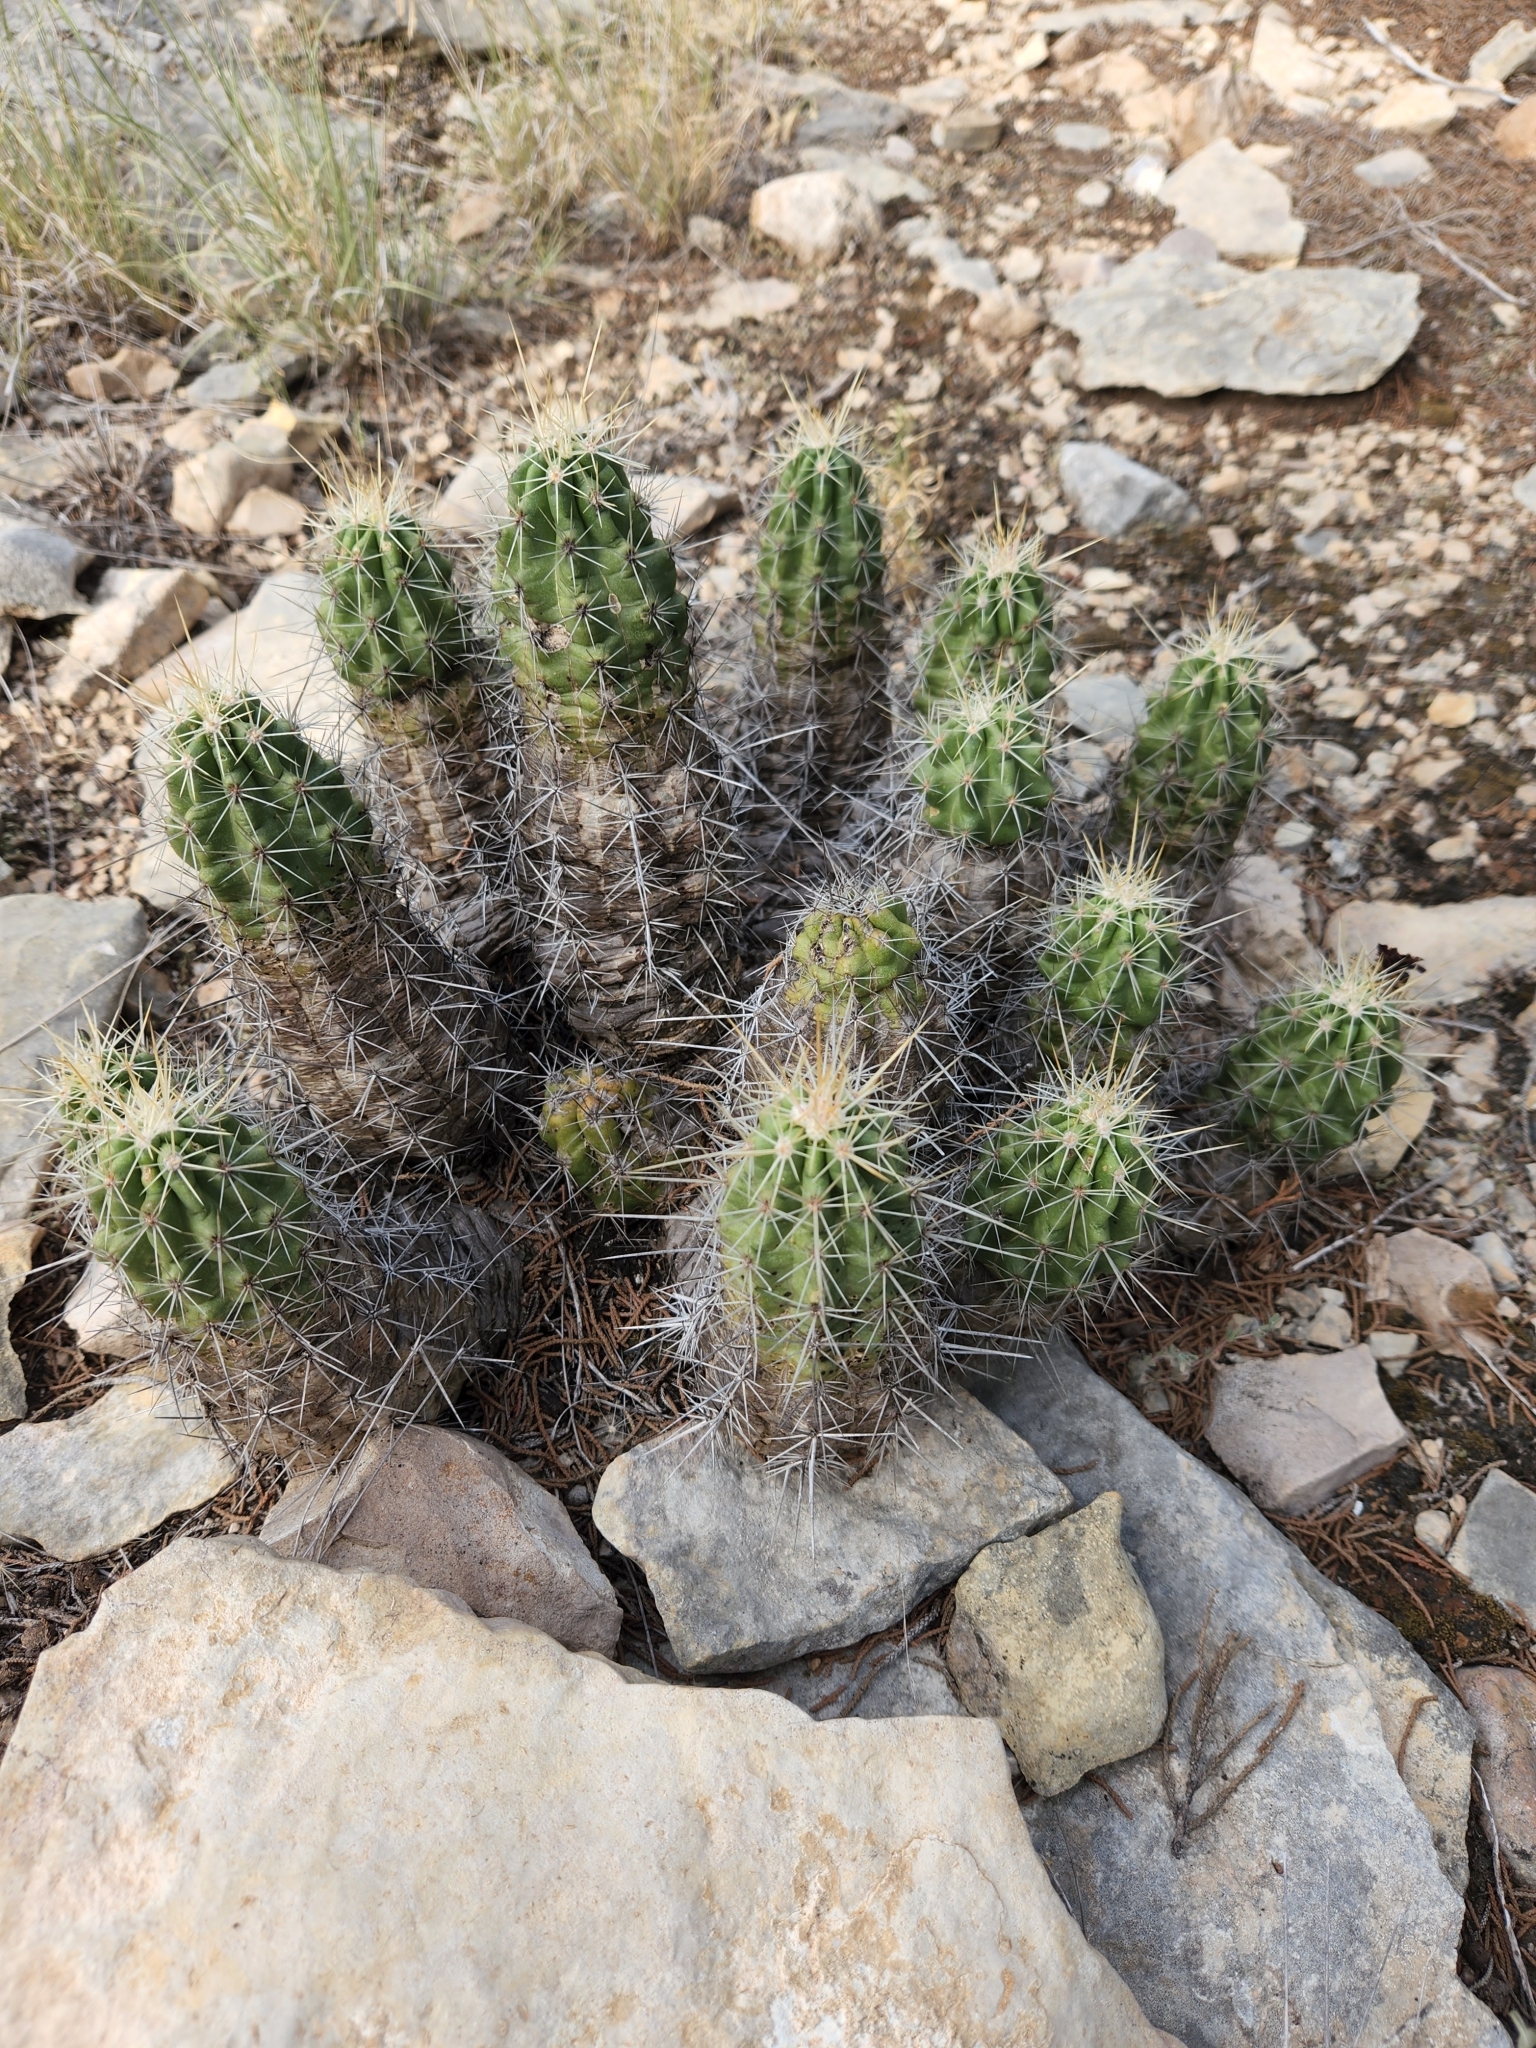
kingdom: Plantae
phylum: Tracheophyta
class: Magnoliopsida
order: Caryophyllales
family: Cactaceae
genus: Echinocereus
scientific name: Echinocereus enneacanthus
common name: Pitaya
